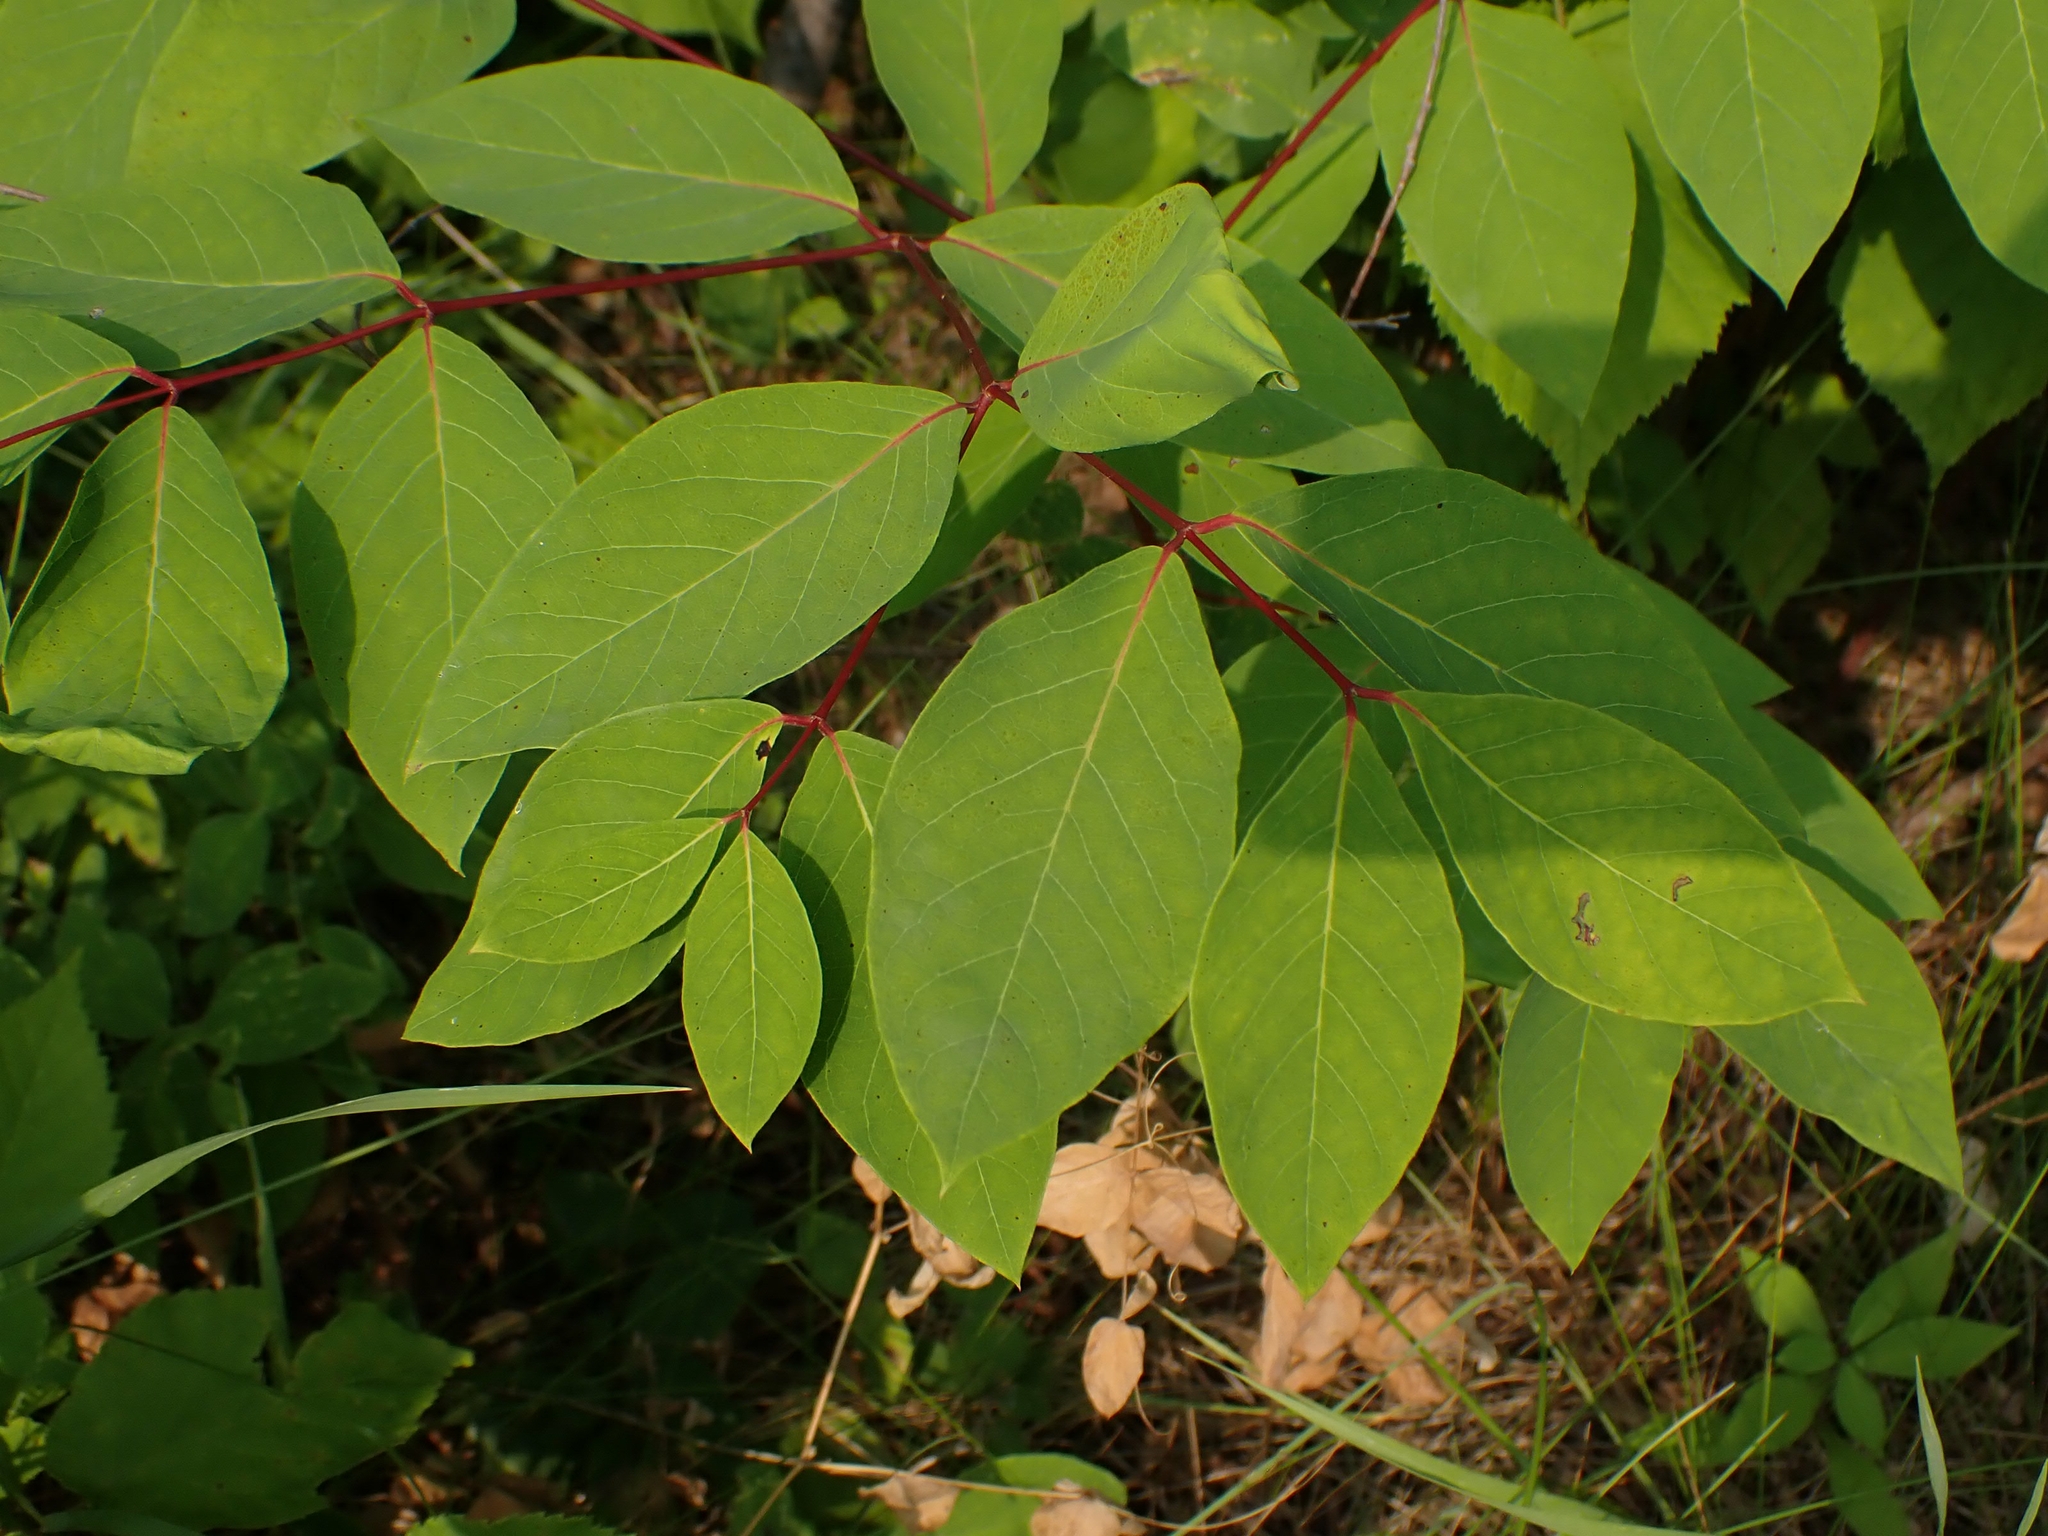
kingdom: Plantae
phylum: Tracheophyta
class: Magnoliopsida
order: Gentianales
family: Apocynaceae
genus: Apocynum
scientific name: Apocynum androsaemifolium
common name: Spreading dogbane
